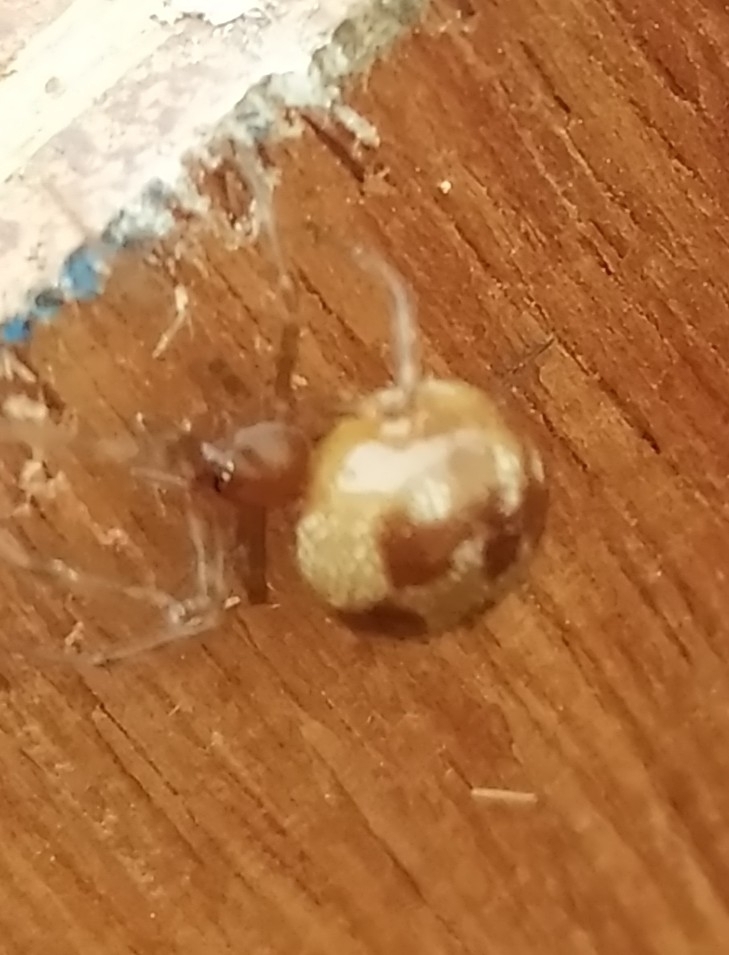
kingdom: Animalia
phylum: Arthropoda
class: Arachnida
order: Araneae
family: Theridiidae
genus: Steatoda
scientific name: Steatoda triangulosa
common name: Triangulate bud spider
